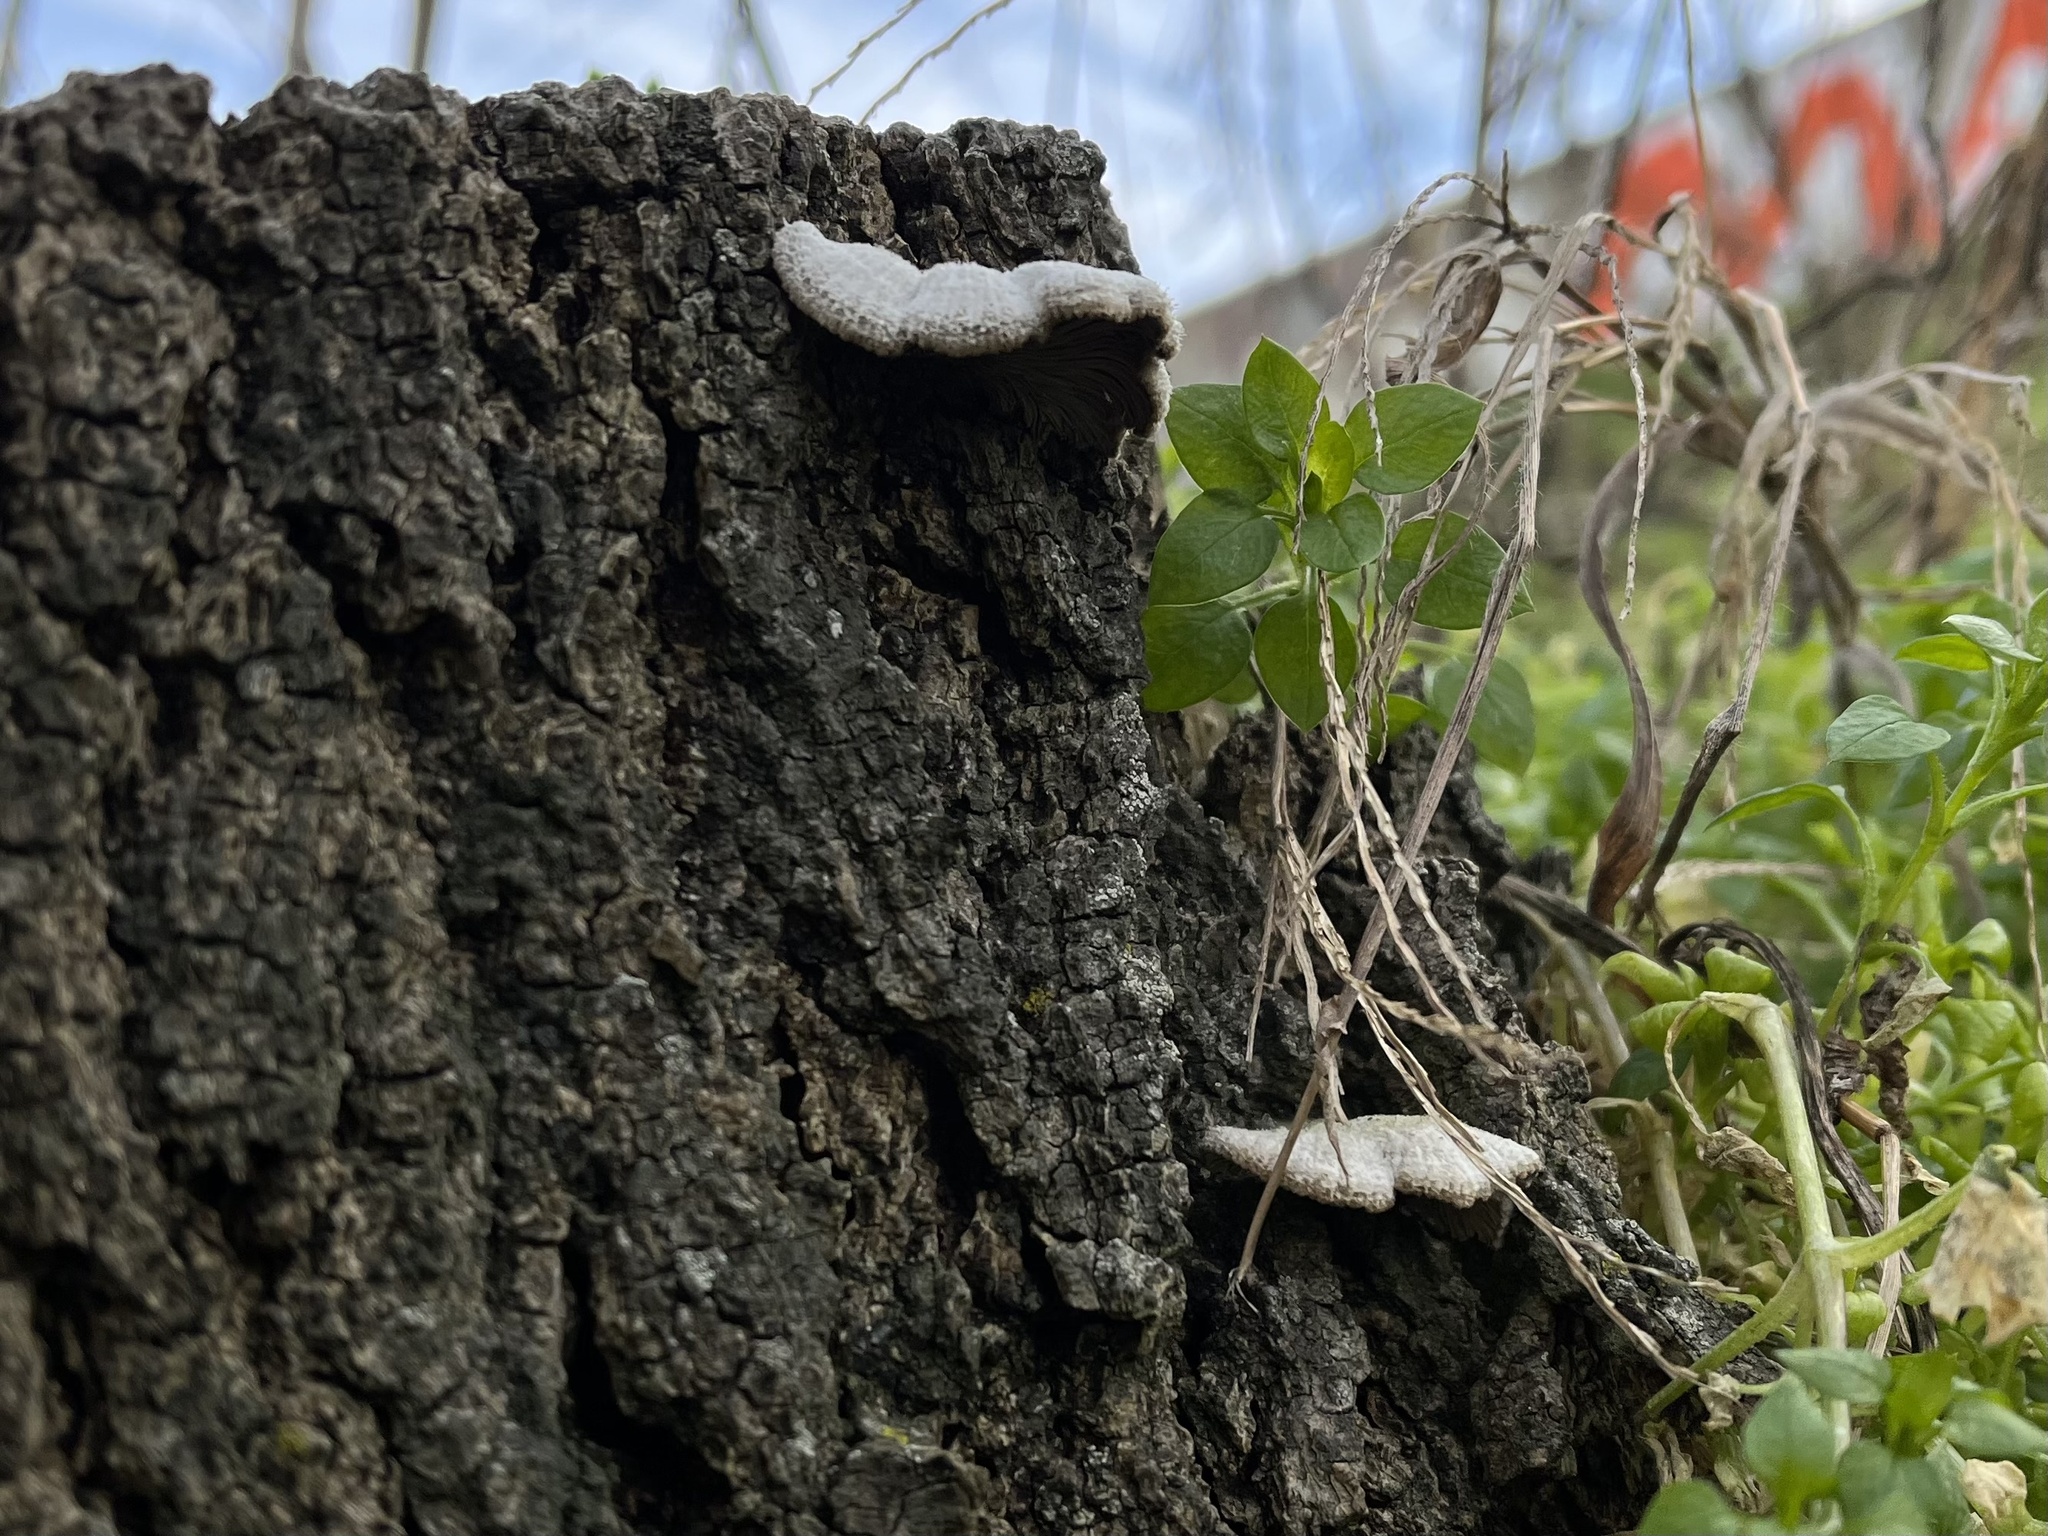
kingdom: Fungi
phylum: Basidiomycota
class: Agaricomycetes
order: Agaricales
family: Schizophyllaceae
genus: Schizophyllum
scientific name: Schizophyllum commune
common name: Common porecrust
